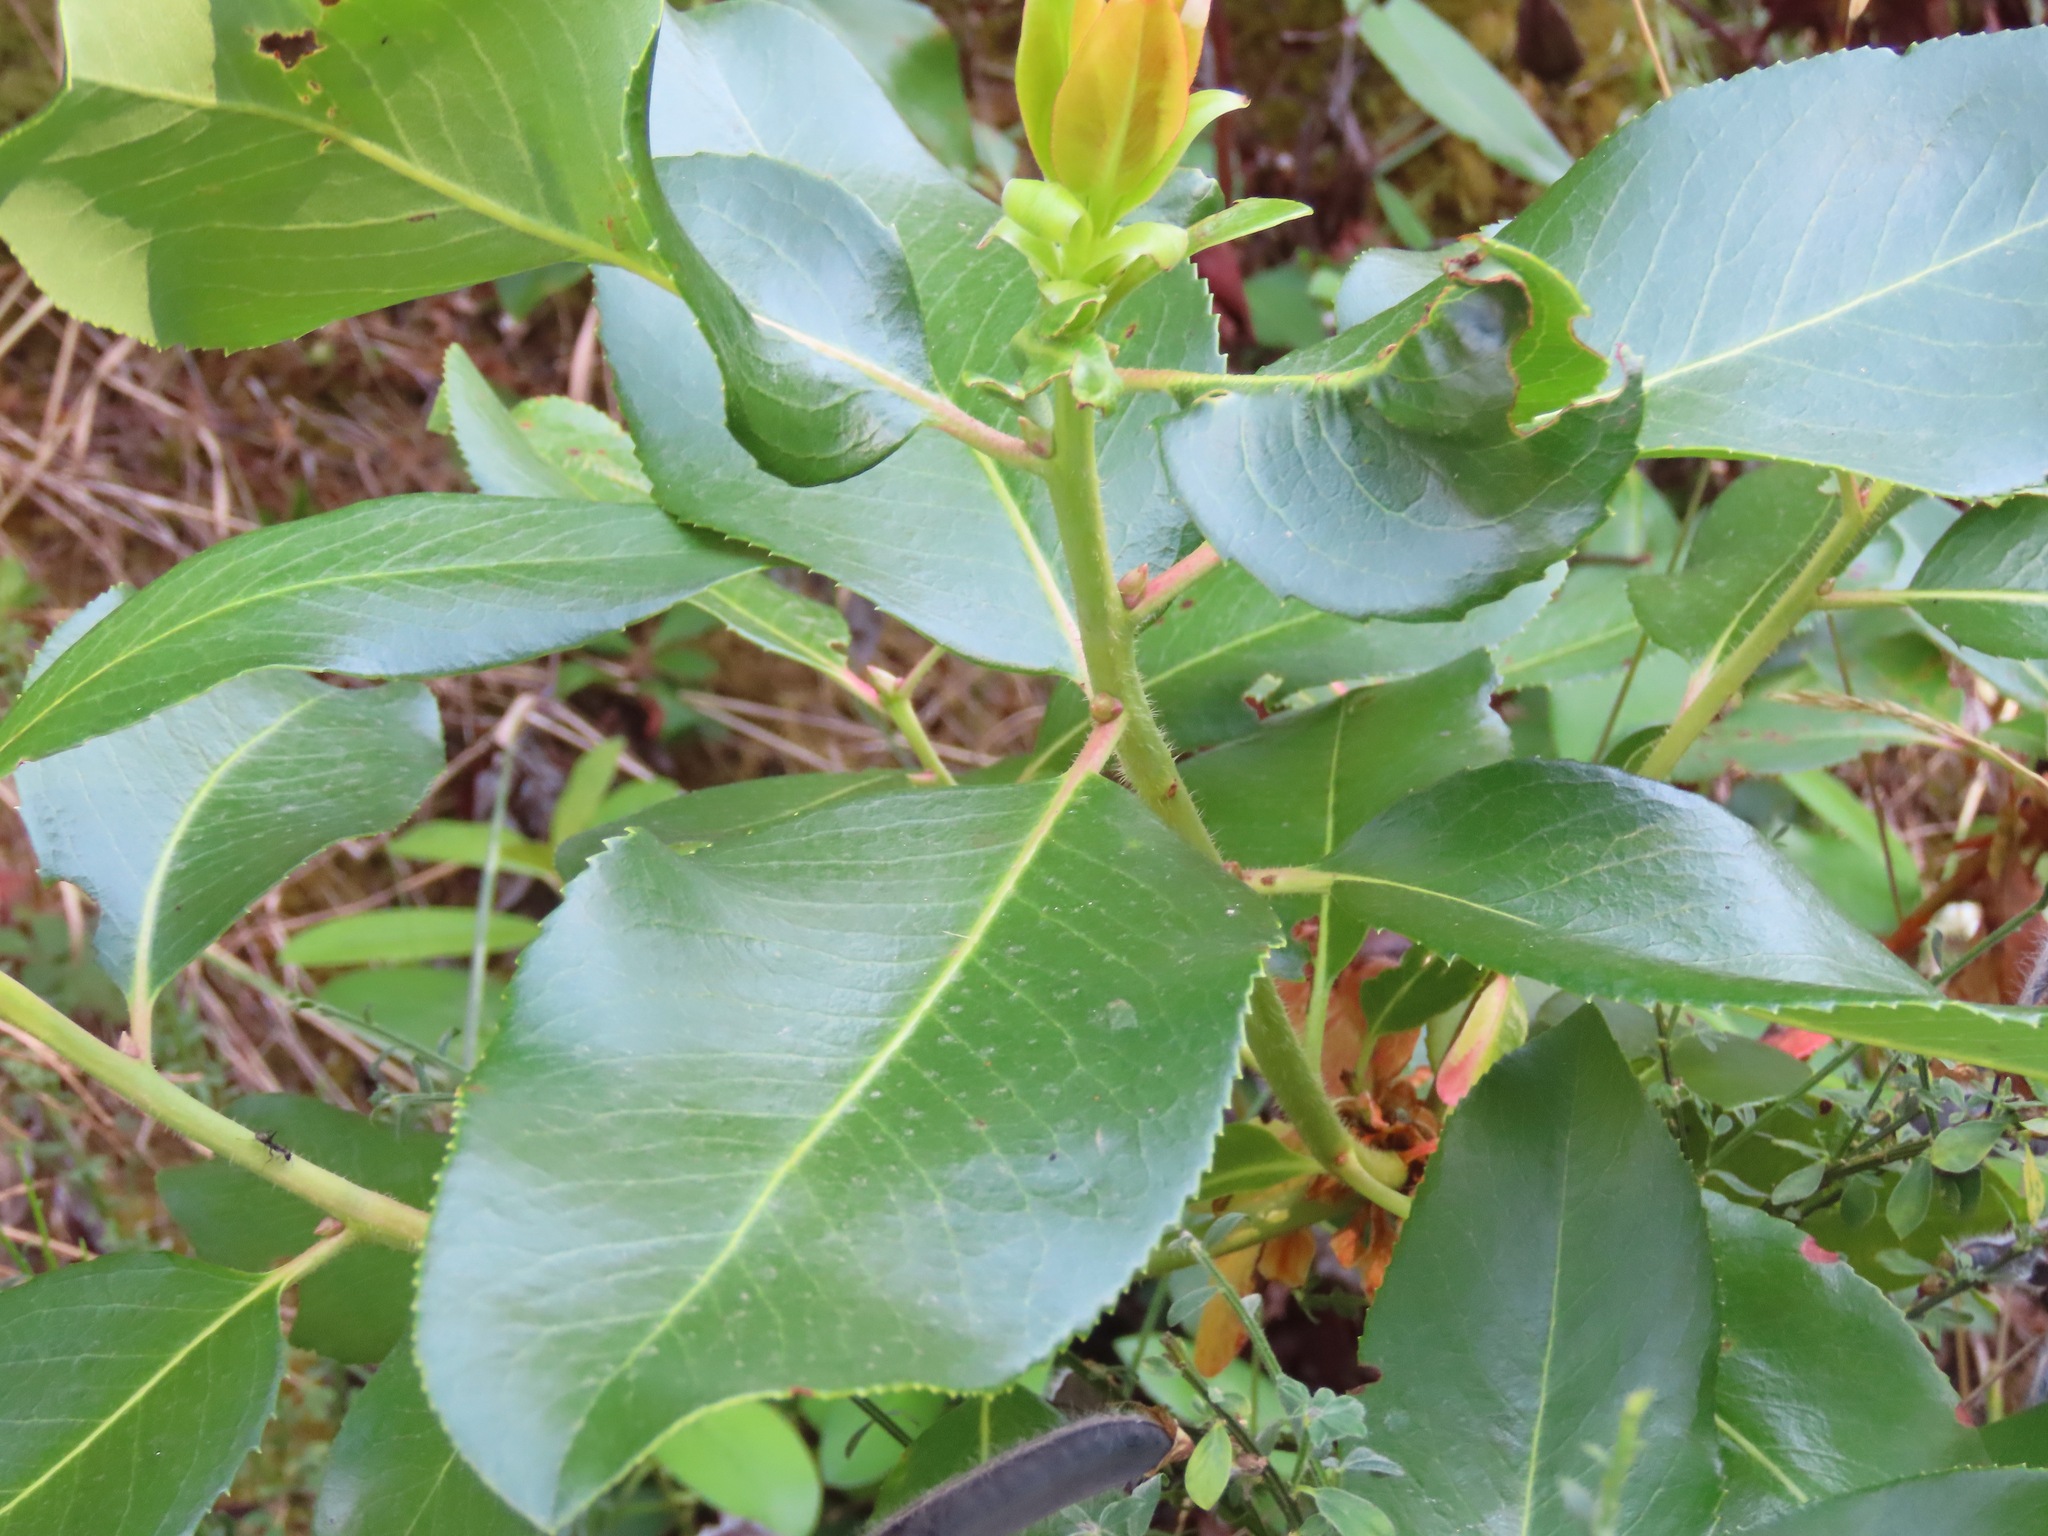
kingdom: Plantae
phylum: Tracheophyta
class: Magnoliopsida
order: Ericales
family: Ericaceae
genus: Arbutus
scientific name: Arbutus menziesii
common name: Pacific madrone
